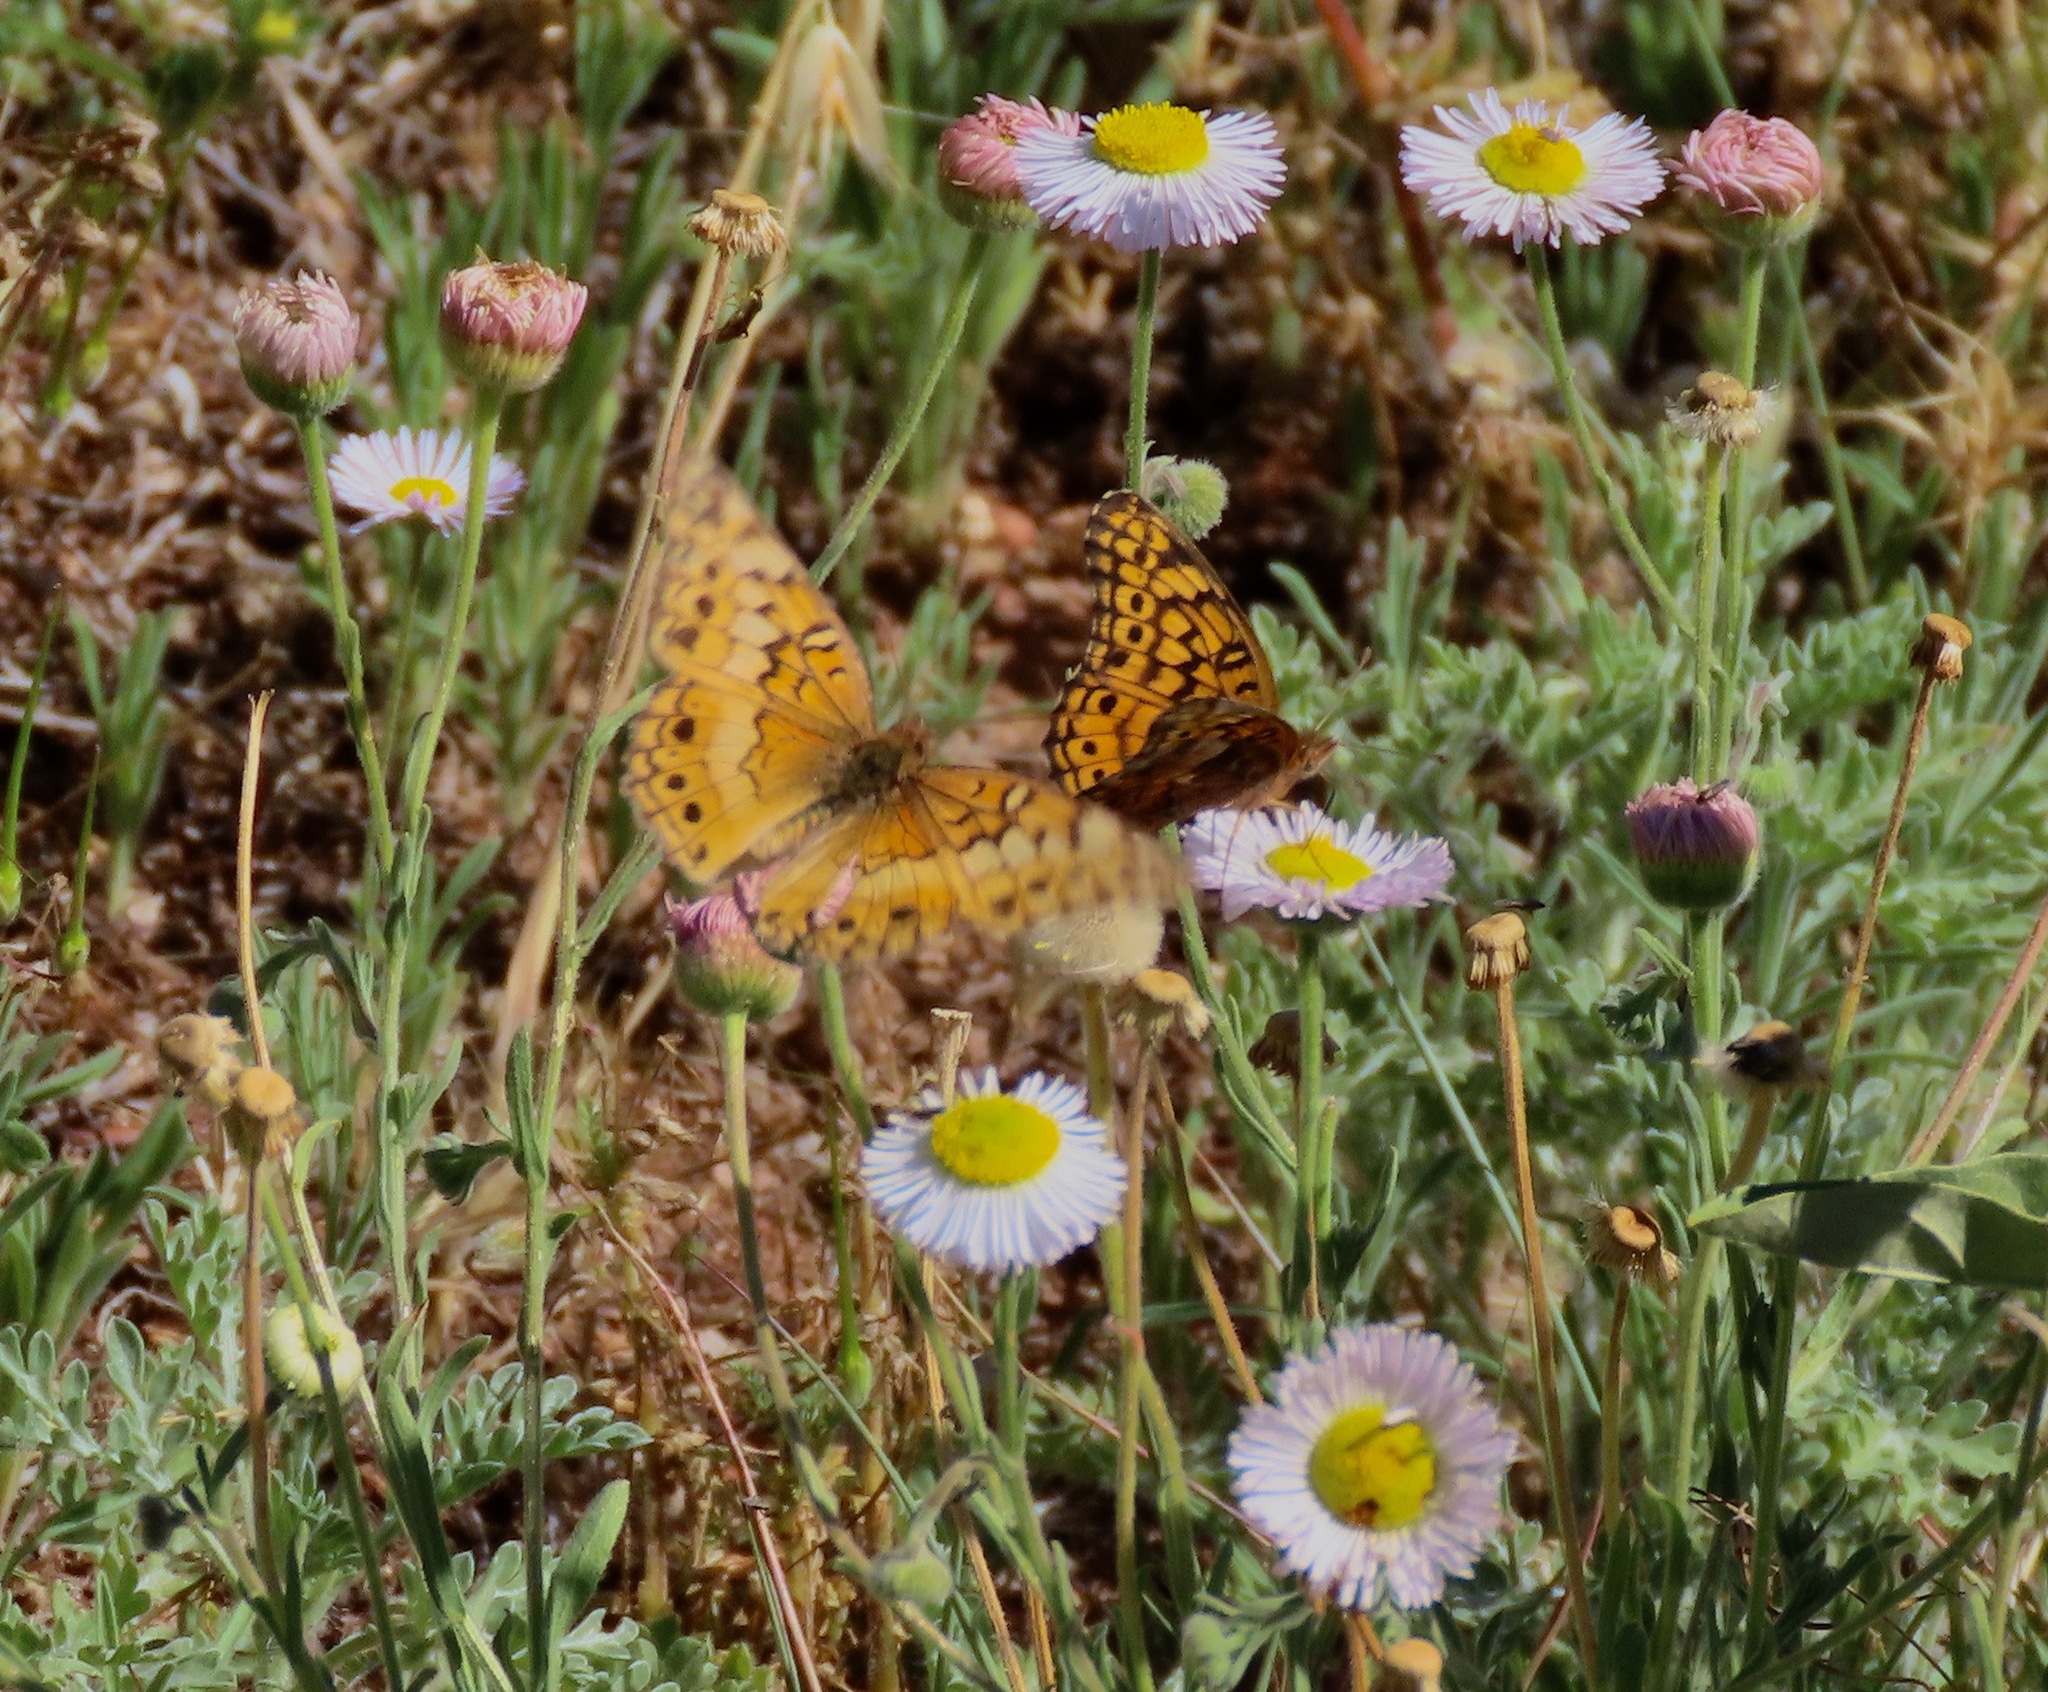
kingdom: Animalia
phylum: Arthropoda
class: Insecta
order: Lepidoptera
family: Nymphalidae
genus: Euptoieta
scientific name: Euptoieta claudia
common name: Variegated fritillary
